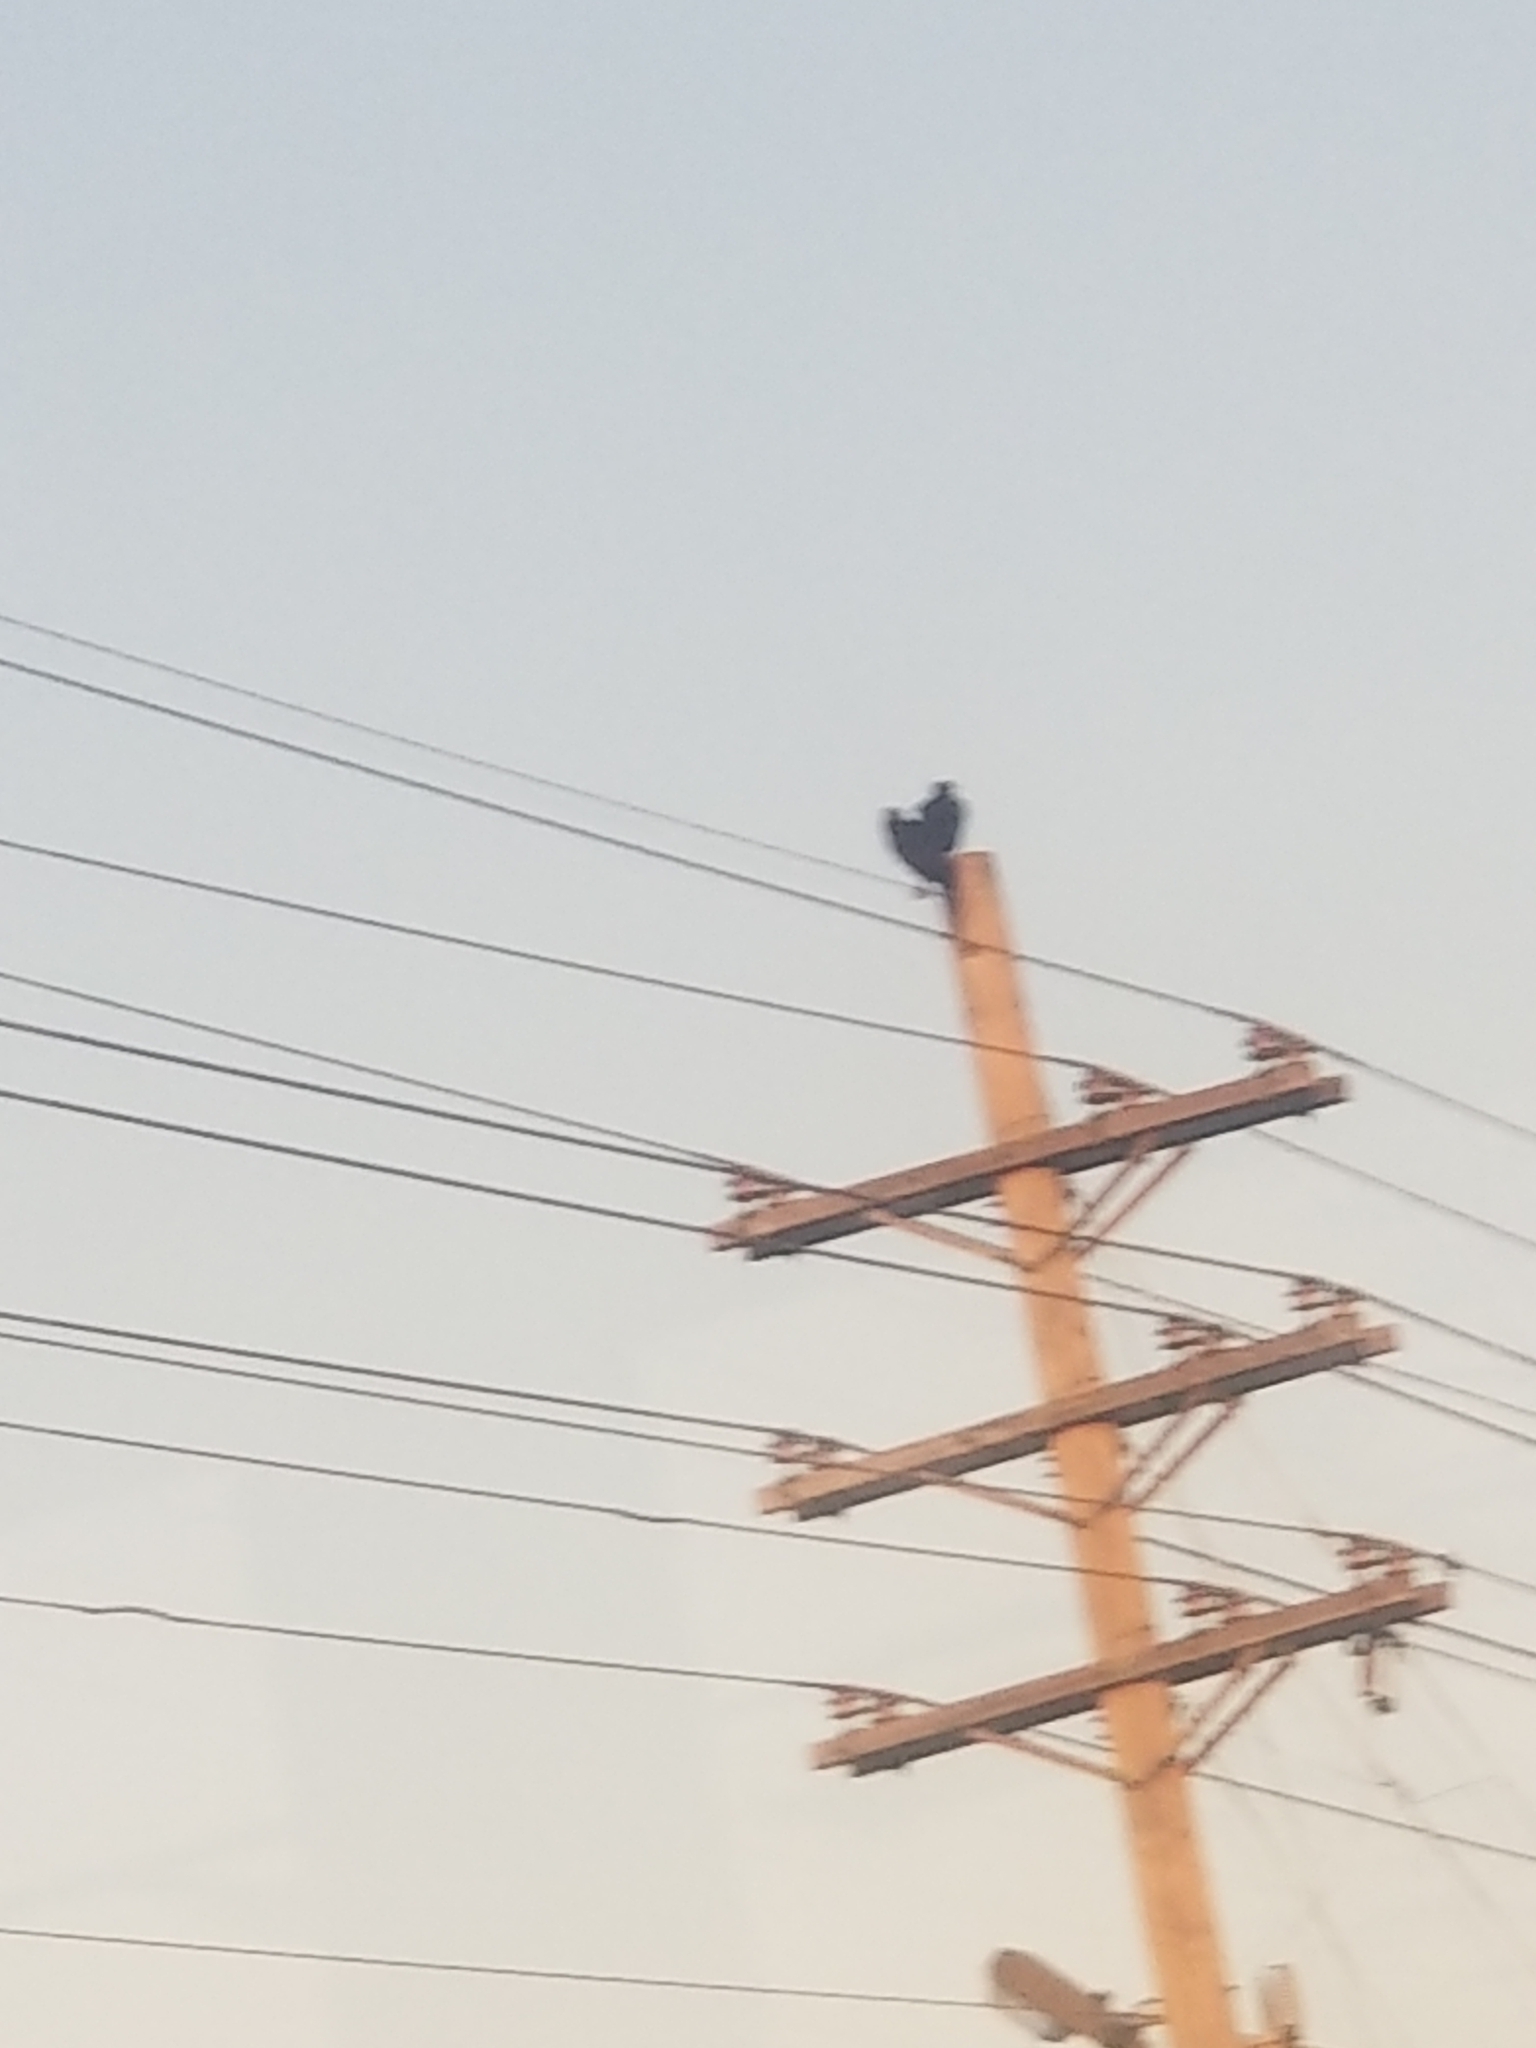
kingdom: Animalia
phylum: Chordata
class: Aves
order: Accipitriformes
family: Cathartidae
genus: Coragyps
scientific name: Coragyps atratus
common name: Black vulture
